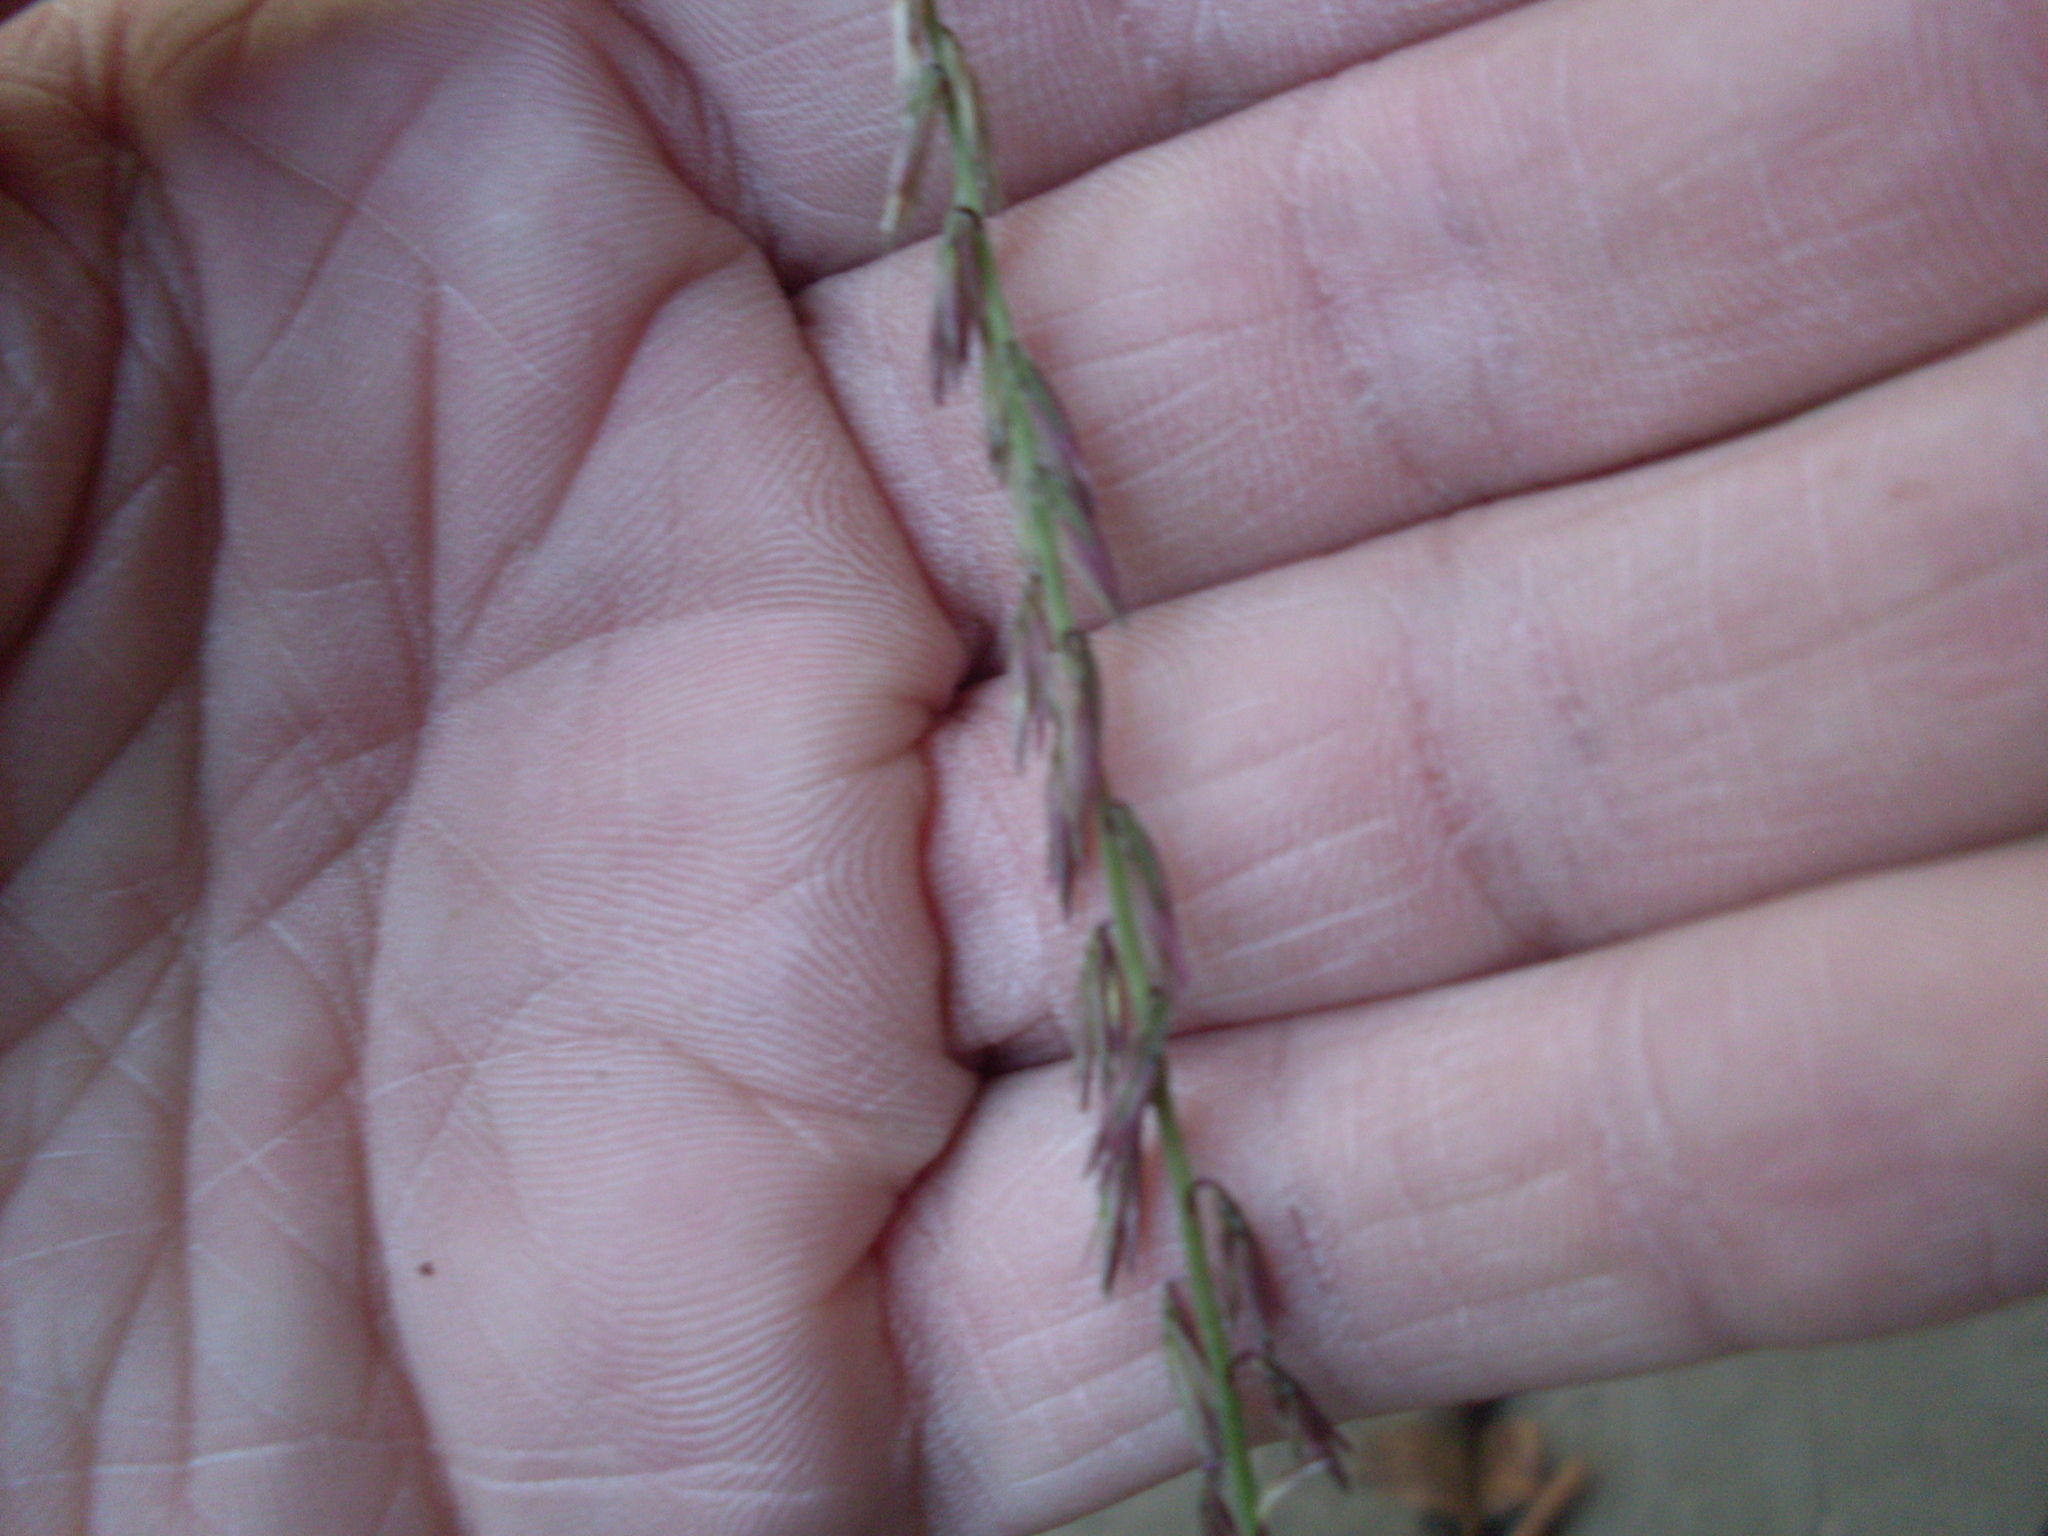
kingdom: Plantae
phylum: Tracheophyta
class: Liliopsida
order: Poales
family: Poaceae
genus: Bouteloua
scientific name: Bouteloua curtipendula
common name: Side-oats grama
